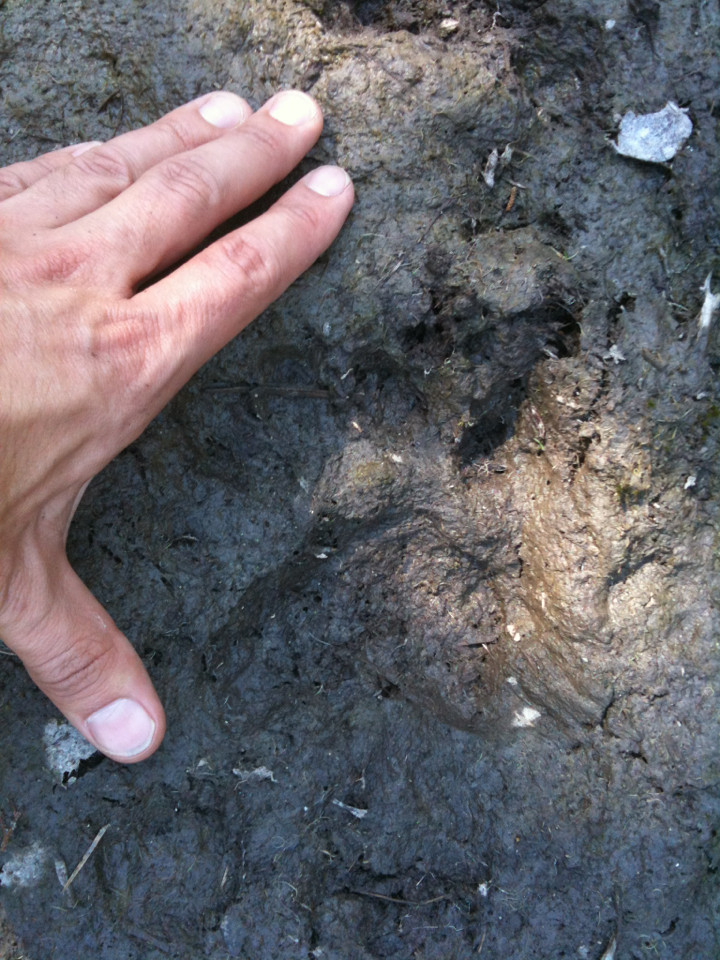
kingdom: Animalia
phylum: Chordata
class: Mammalia
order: Carnivora
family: Ursidae
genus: Ursus
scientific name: Ursus americanus
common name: American black bear
